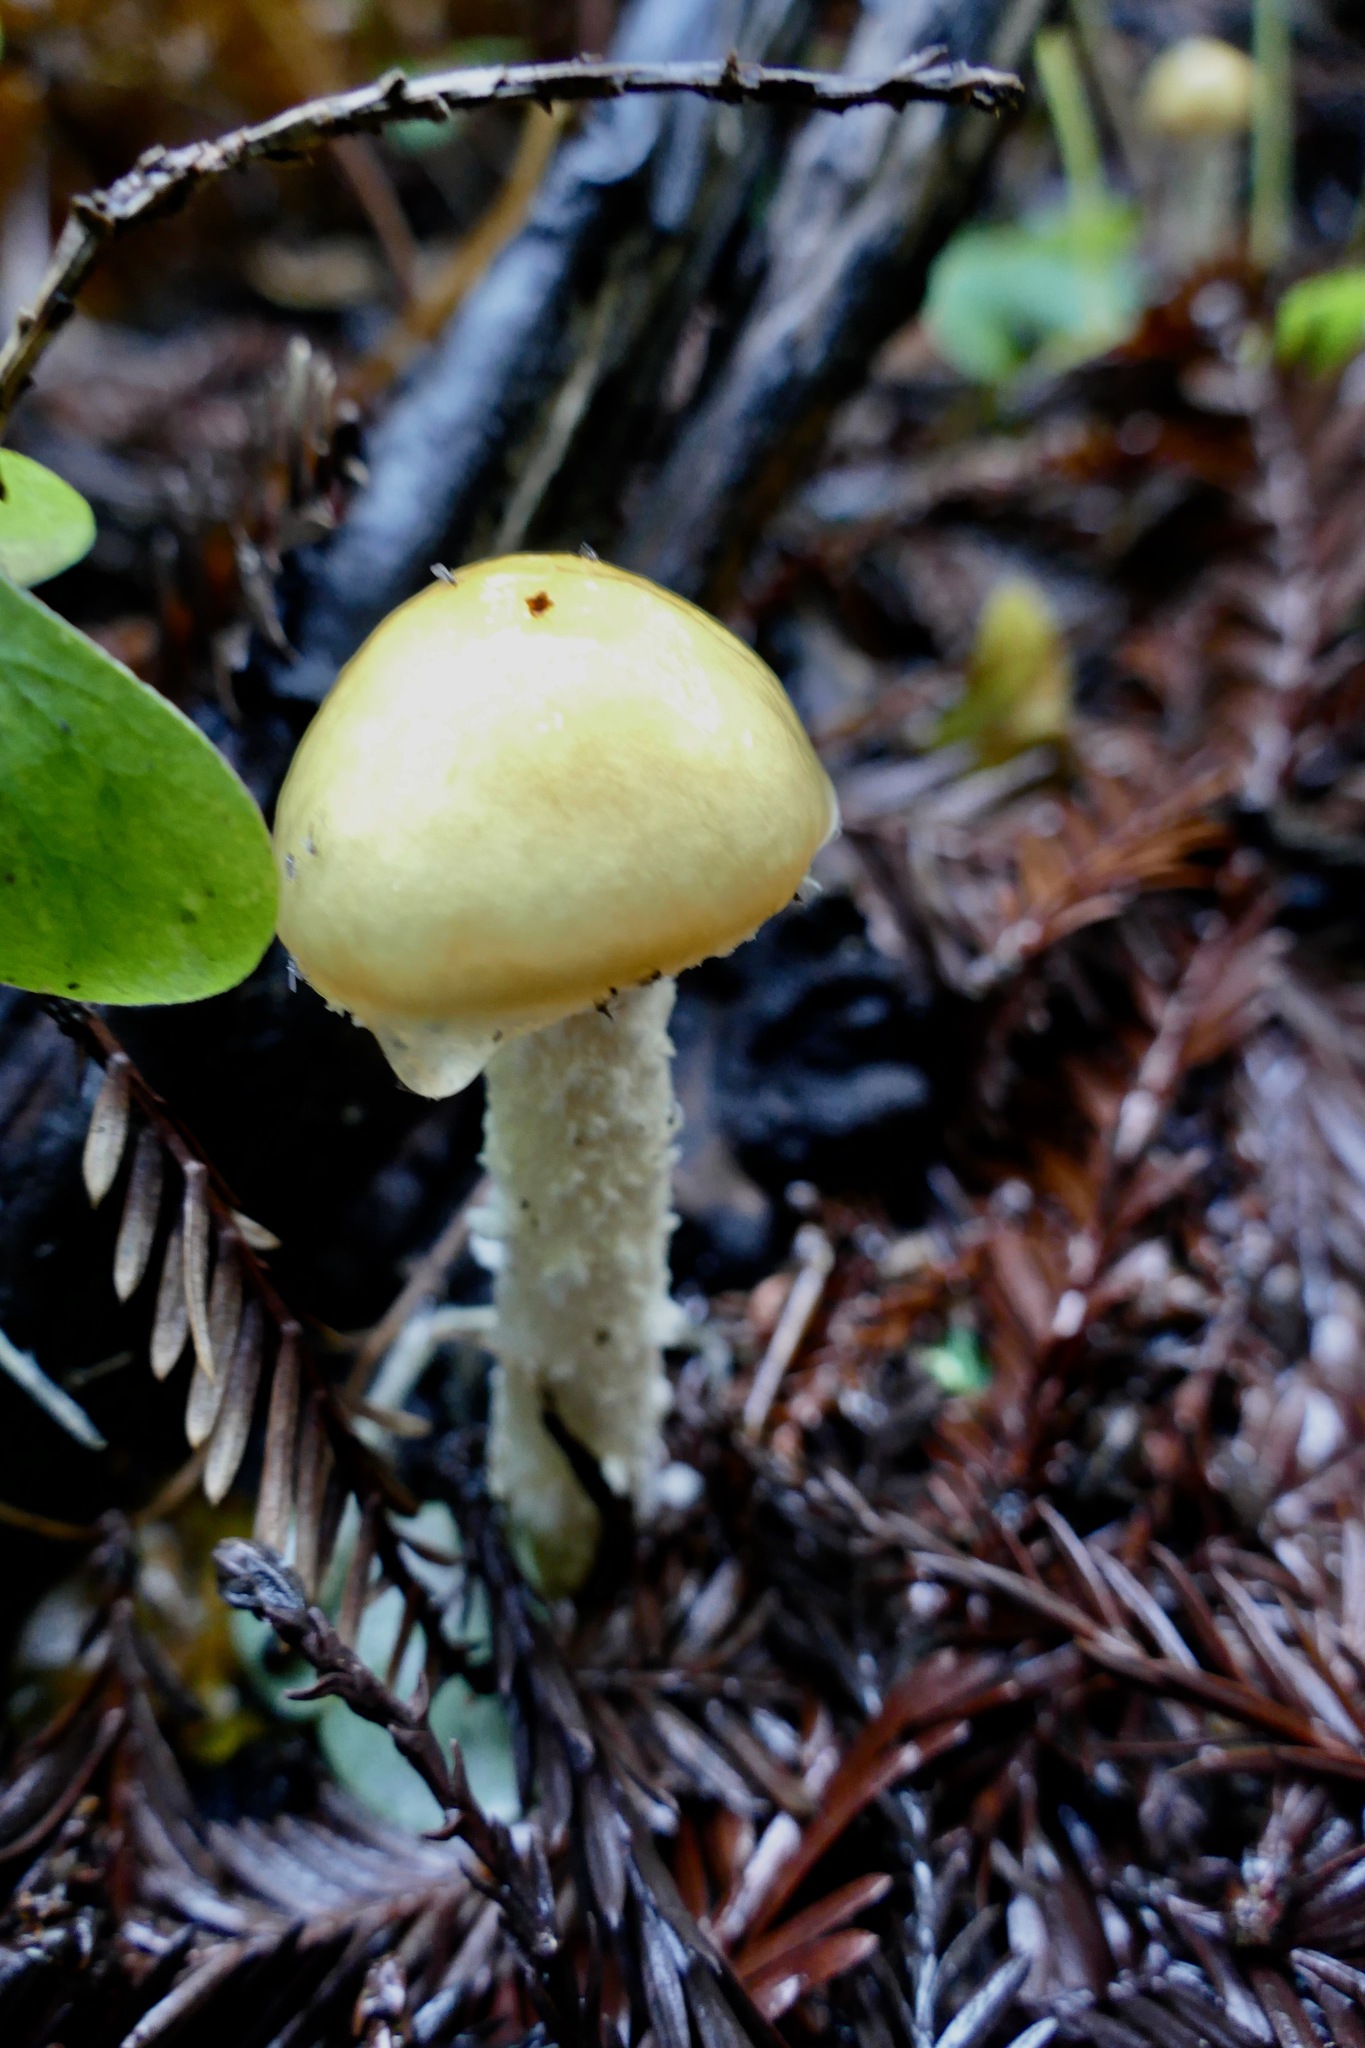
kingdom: Fungi
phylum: Basidiomycota
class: Agaricomycetes
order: Agaricales
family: Strophariaceae
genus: Stropharia
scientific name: Stropharia ambigua
